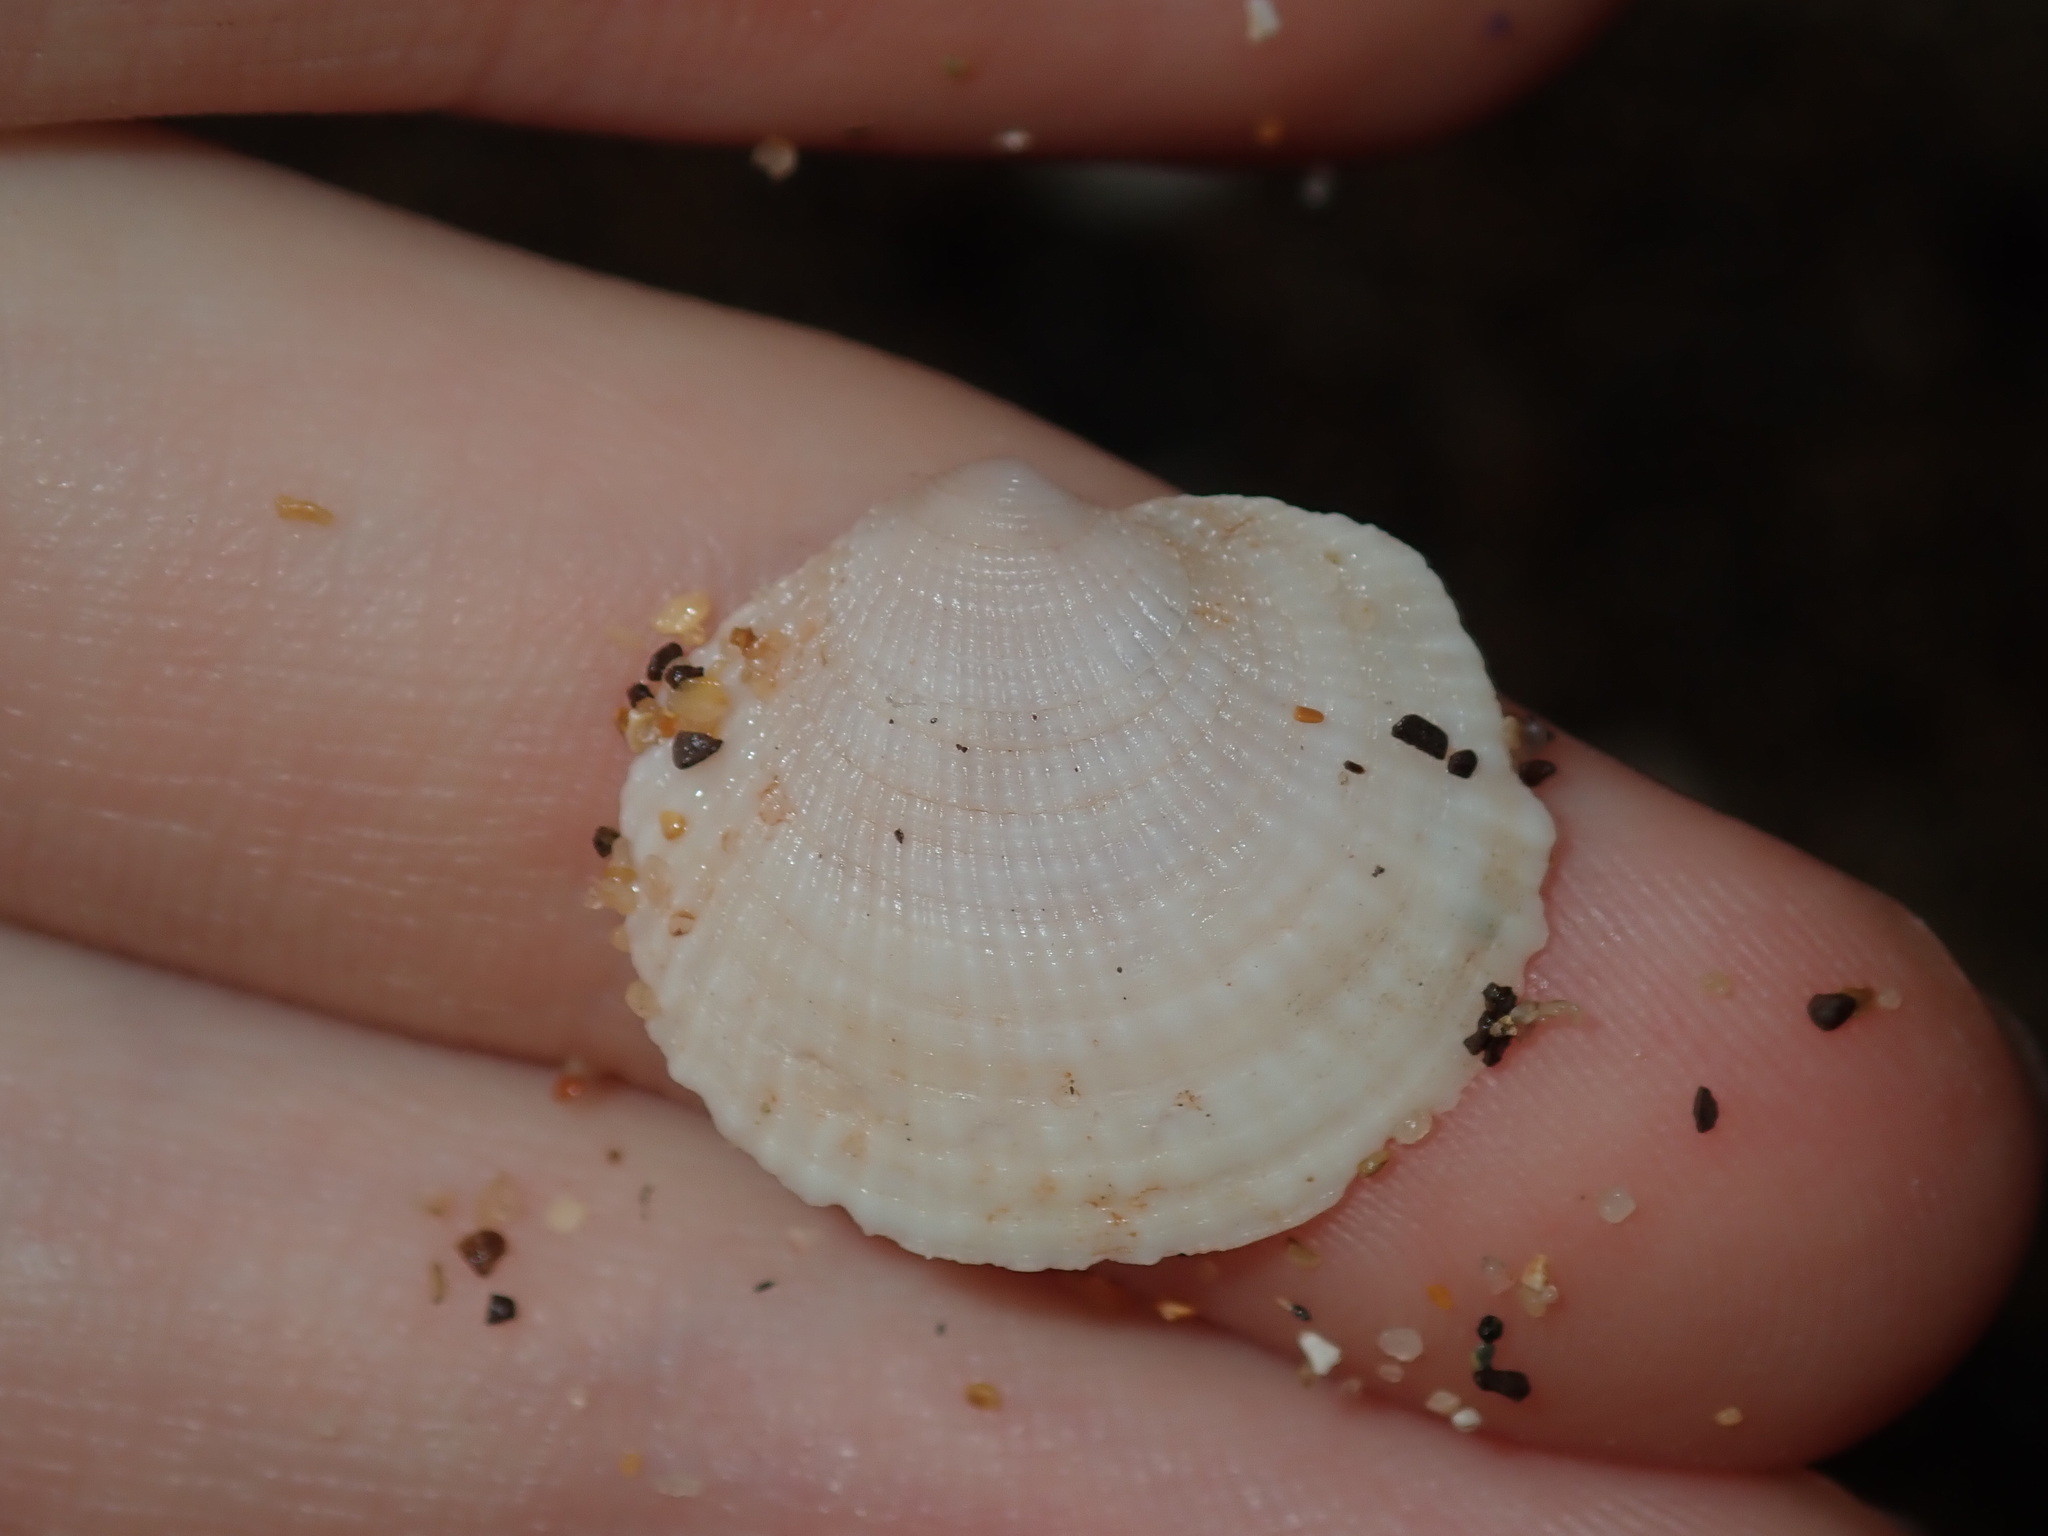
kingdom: Animalia
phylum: Mollusca
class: Bivalvia
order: Lucinida
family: Lucinidae
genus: Ctena
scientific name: Ctena bella
